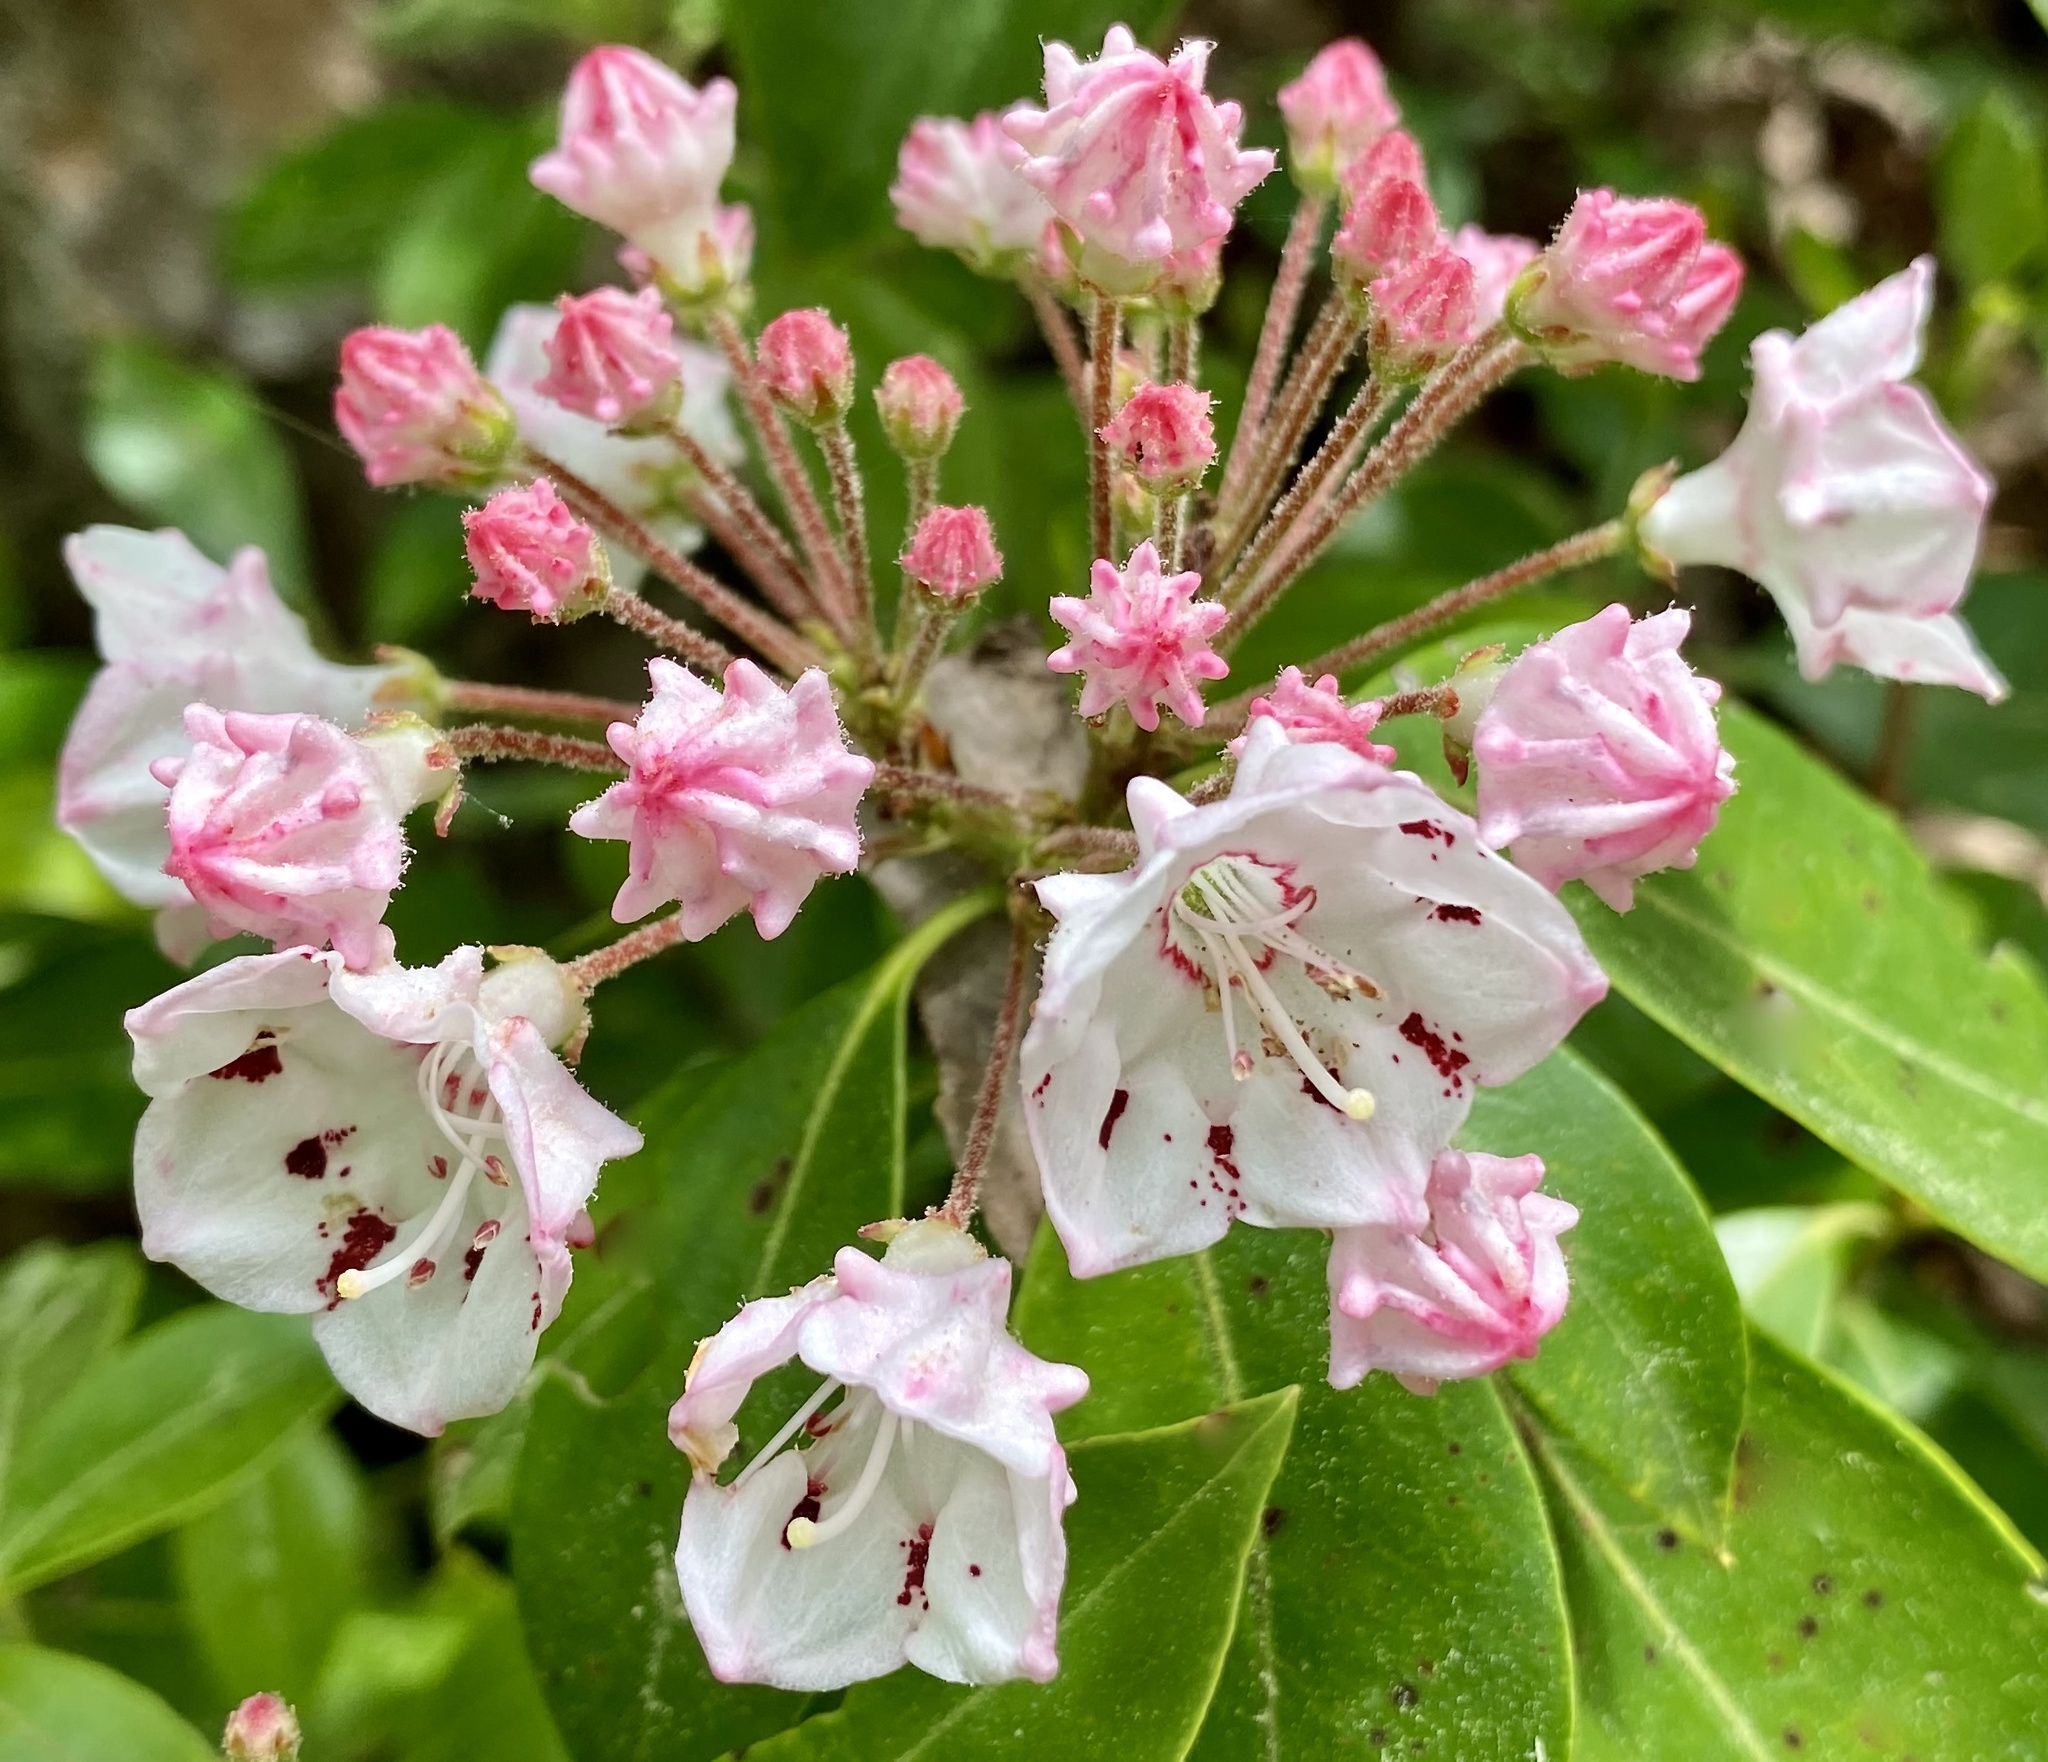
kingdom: Plantae
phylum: Tracheophyta
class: Magnoliopsida
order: Ericales
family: Ericaceae
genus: Kalmia
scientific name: Kalmia latifolia
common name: Mountain-laurel
